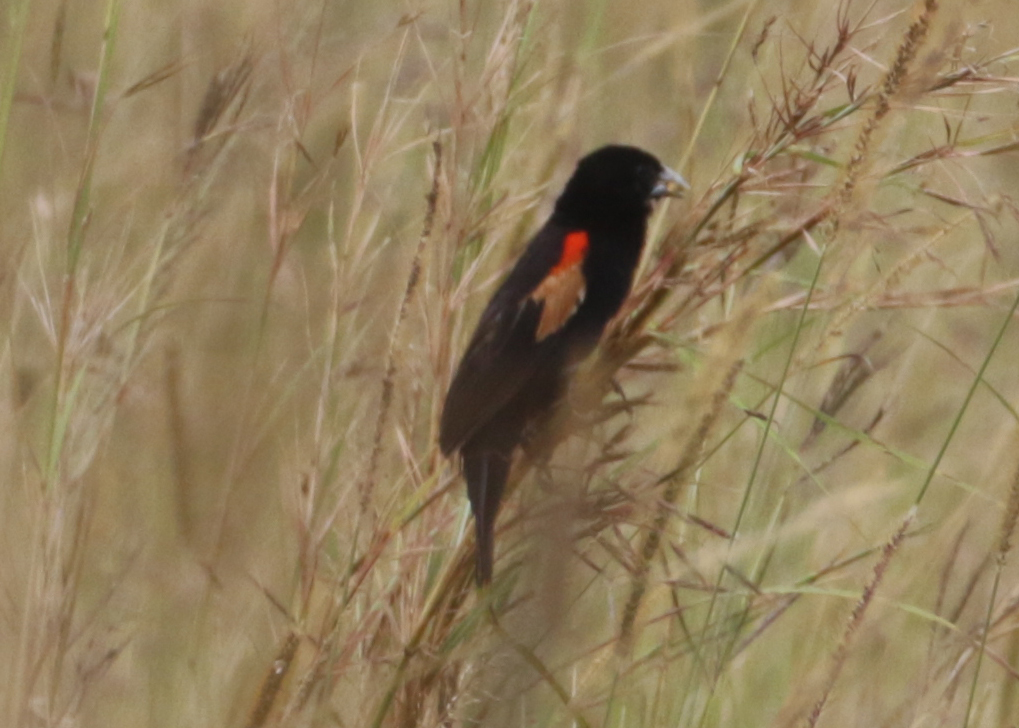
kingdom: Animalia
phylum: Chordata
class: Aves
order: Passeriformes
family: Ploceidae
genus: Euplectes
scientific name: Euplectes axillaris
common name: Fan-tailed widowbird
